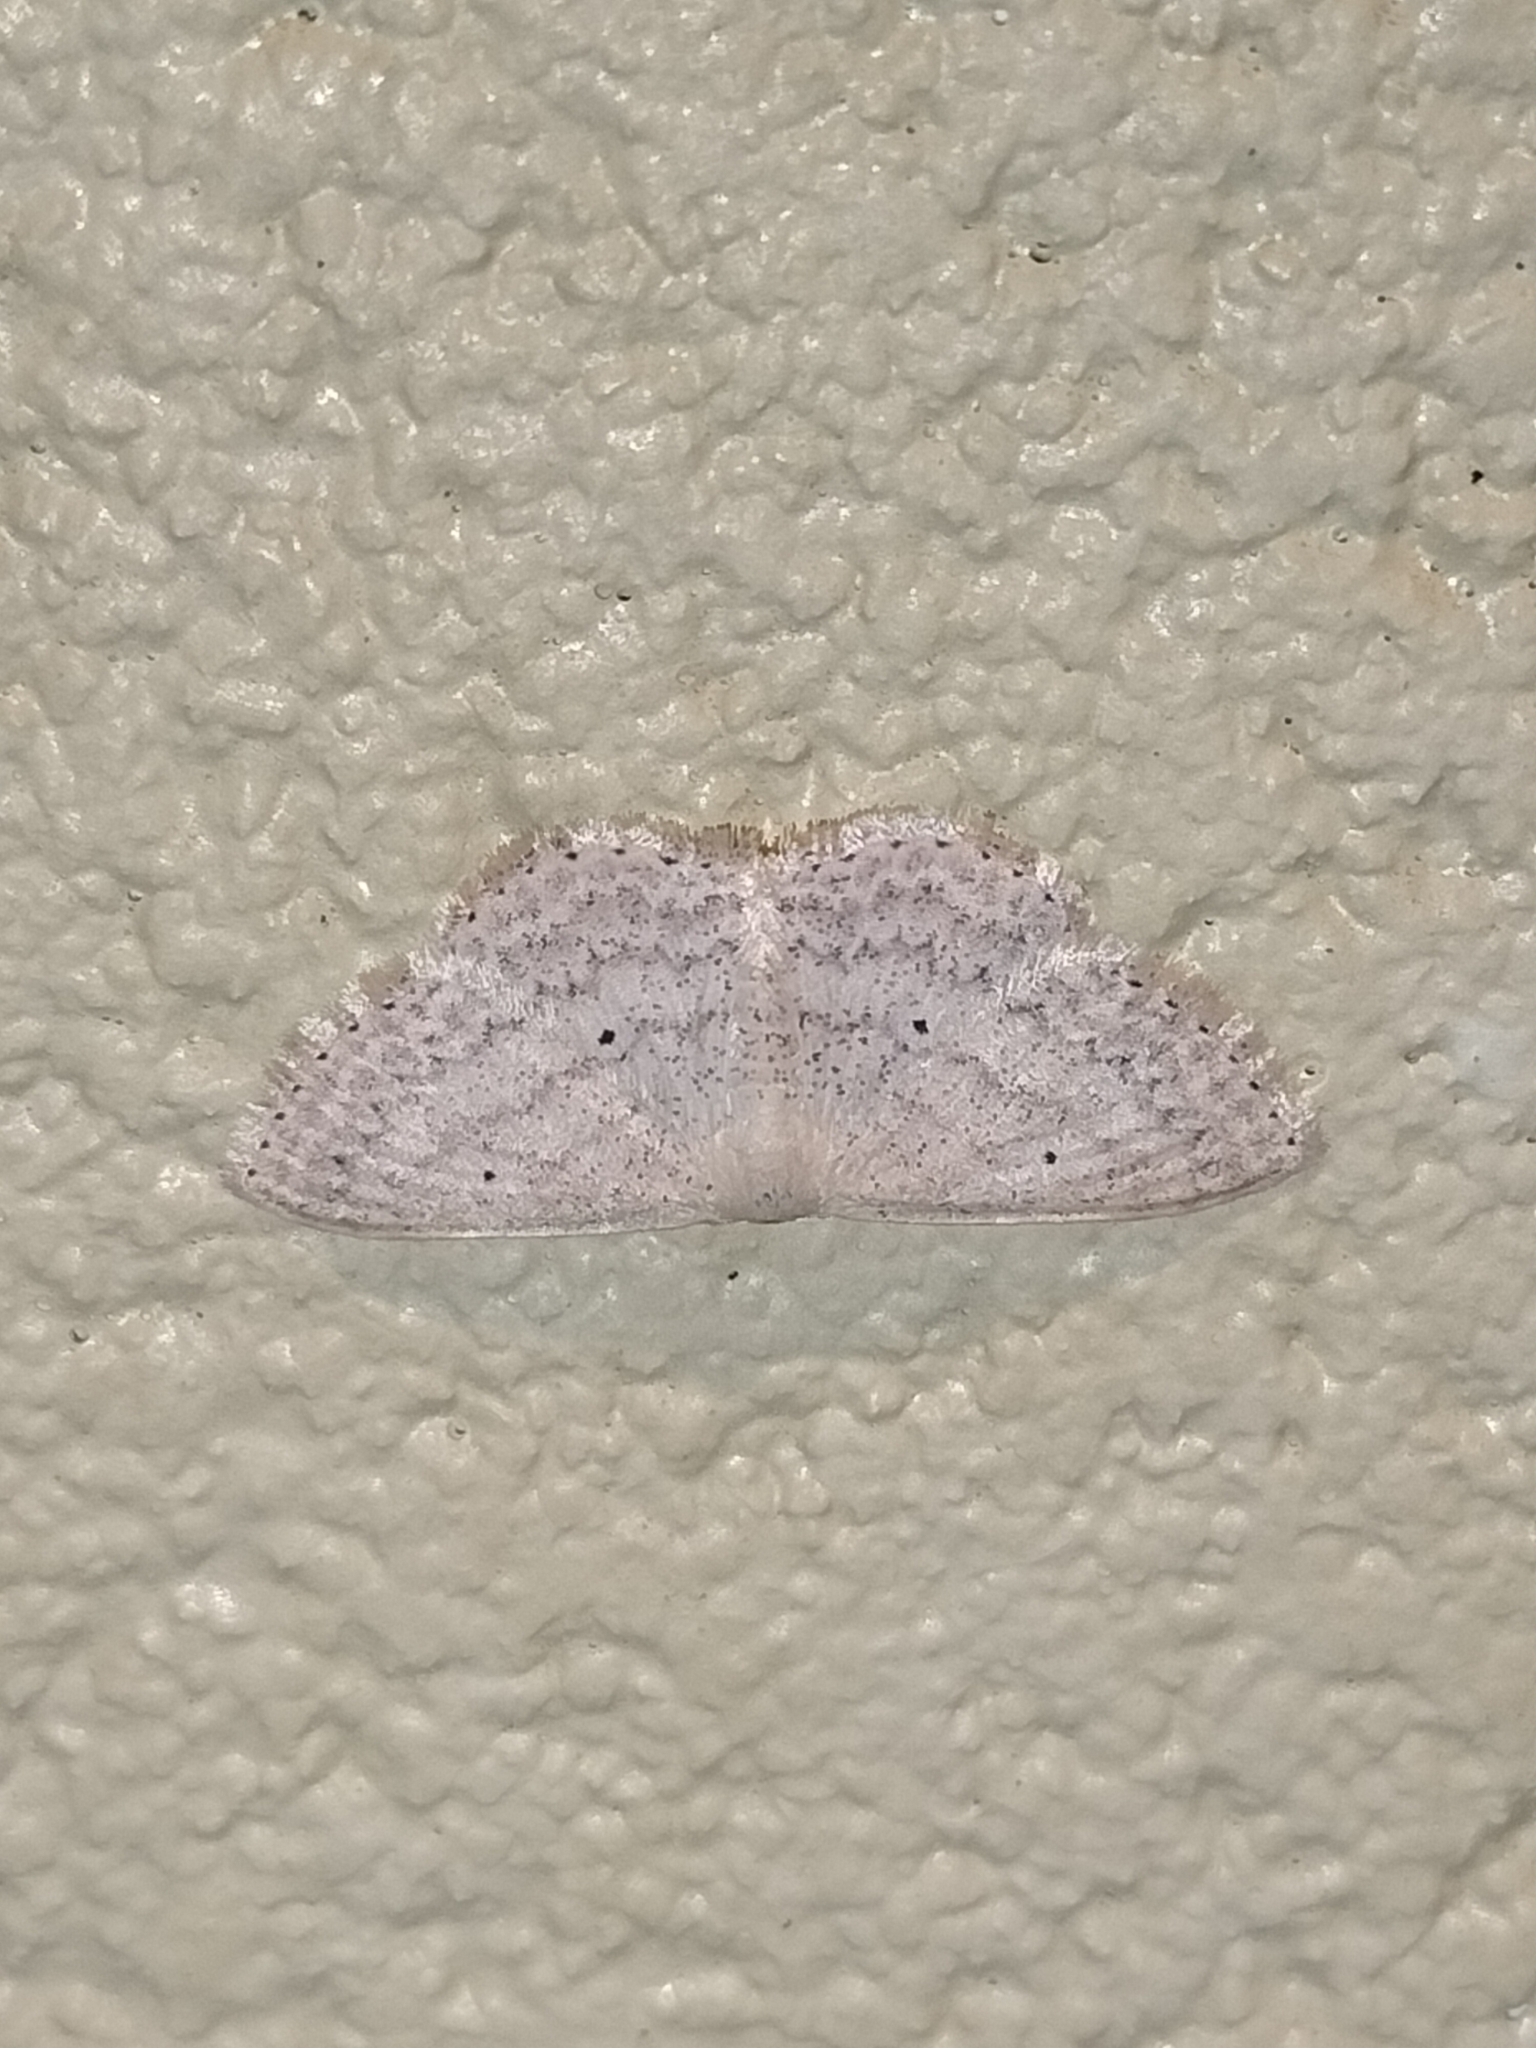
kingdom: Animalia
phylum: Arthropoda
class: Insecta
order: Lepidoptera
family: Geometridae
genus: Scopula
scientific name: Scopula prosoeca
